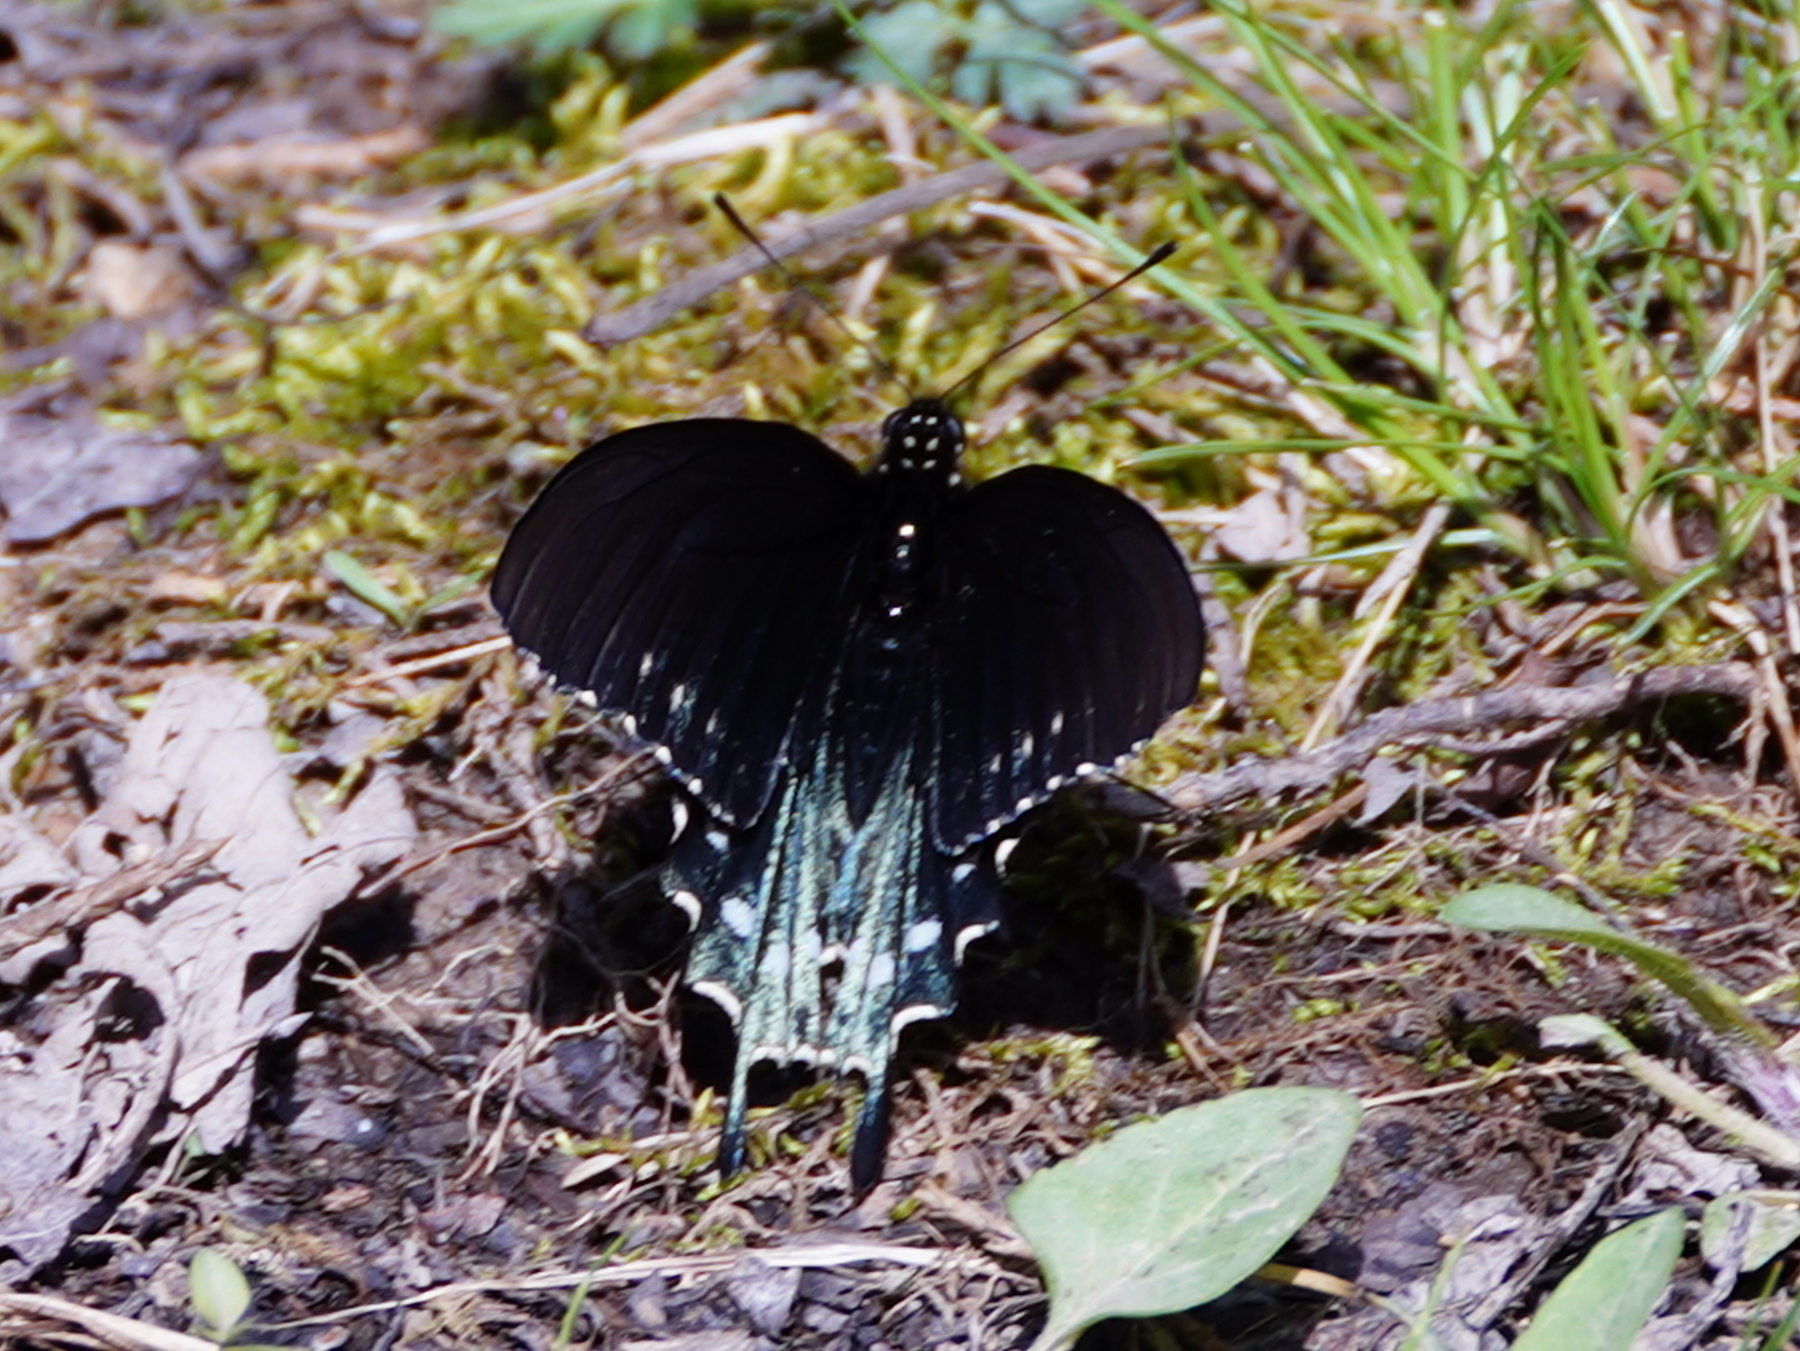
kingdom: Animalia
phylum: Arthropoda
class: Insecta
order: Lepidoptera
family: Papilionidae
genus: Battus
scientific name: Battus philenor
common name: Pipevine swallowtail
